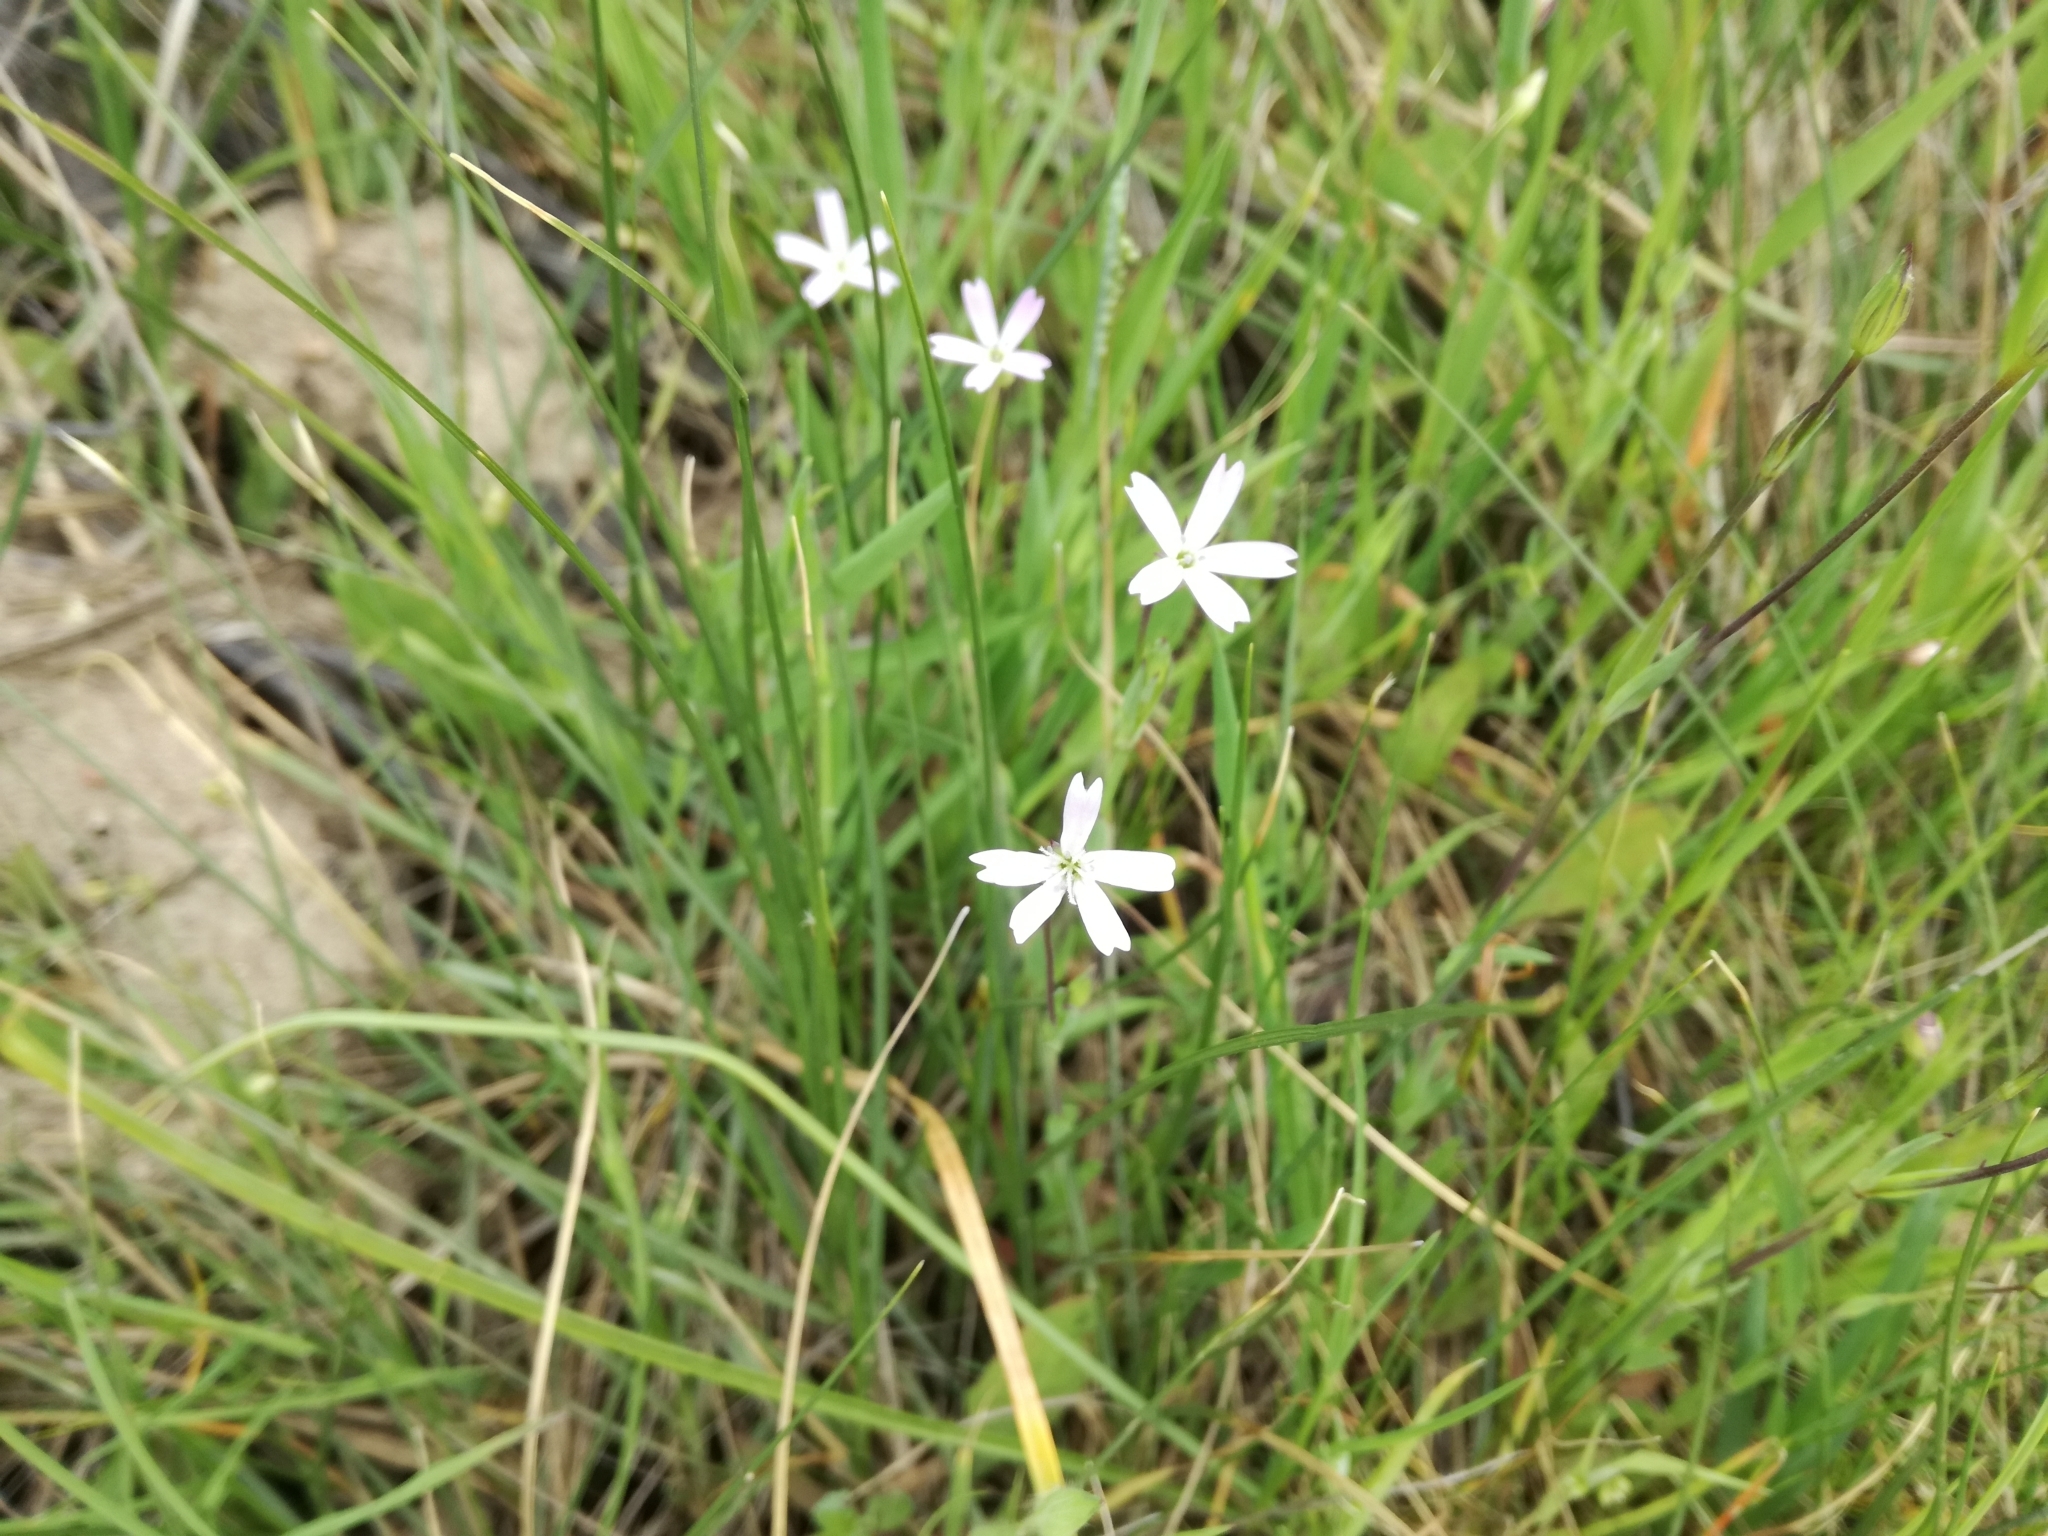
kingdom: Plantae
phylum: Tracheophyta
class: Magnoliopsida
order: Caryophyllales
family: Caryophyllaceae
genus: Eudianthe
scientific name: Eudianthe laeta
